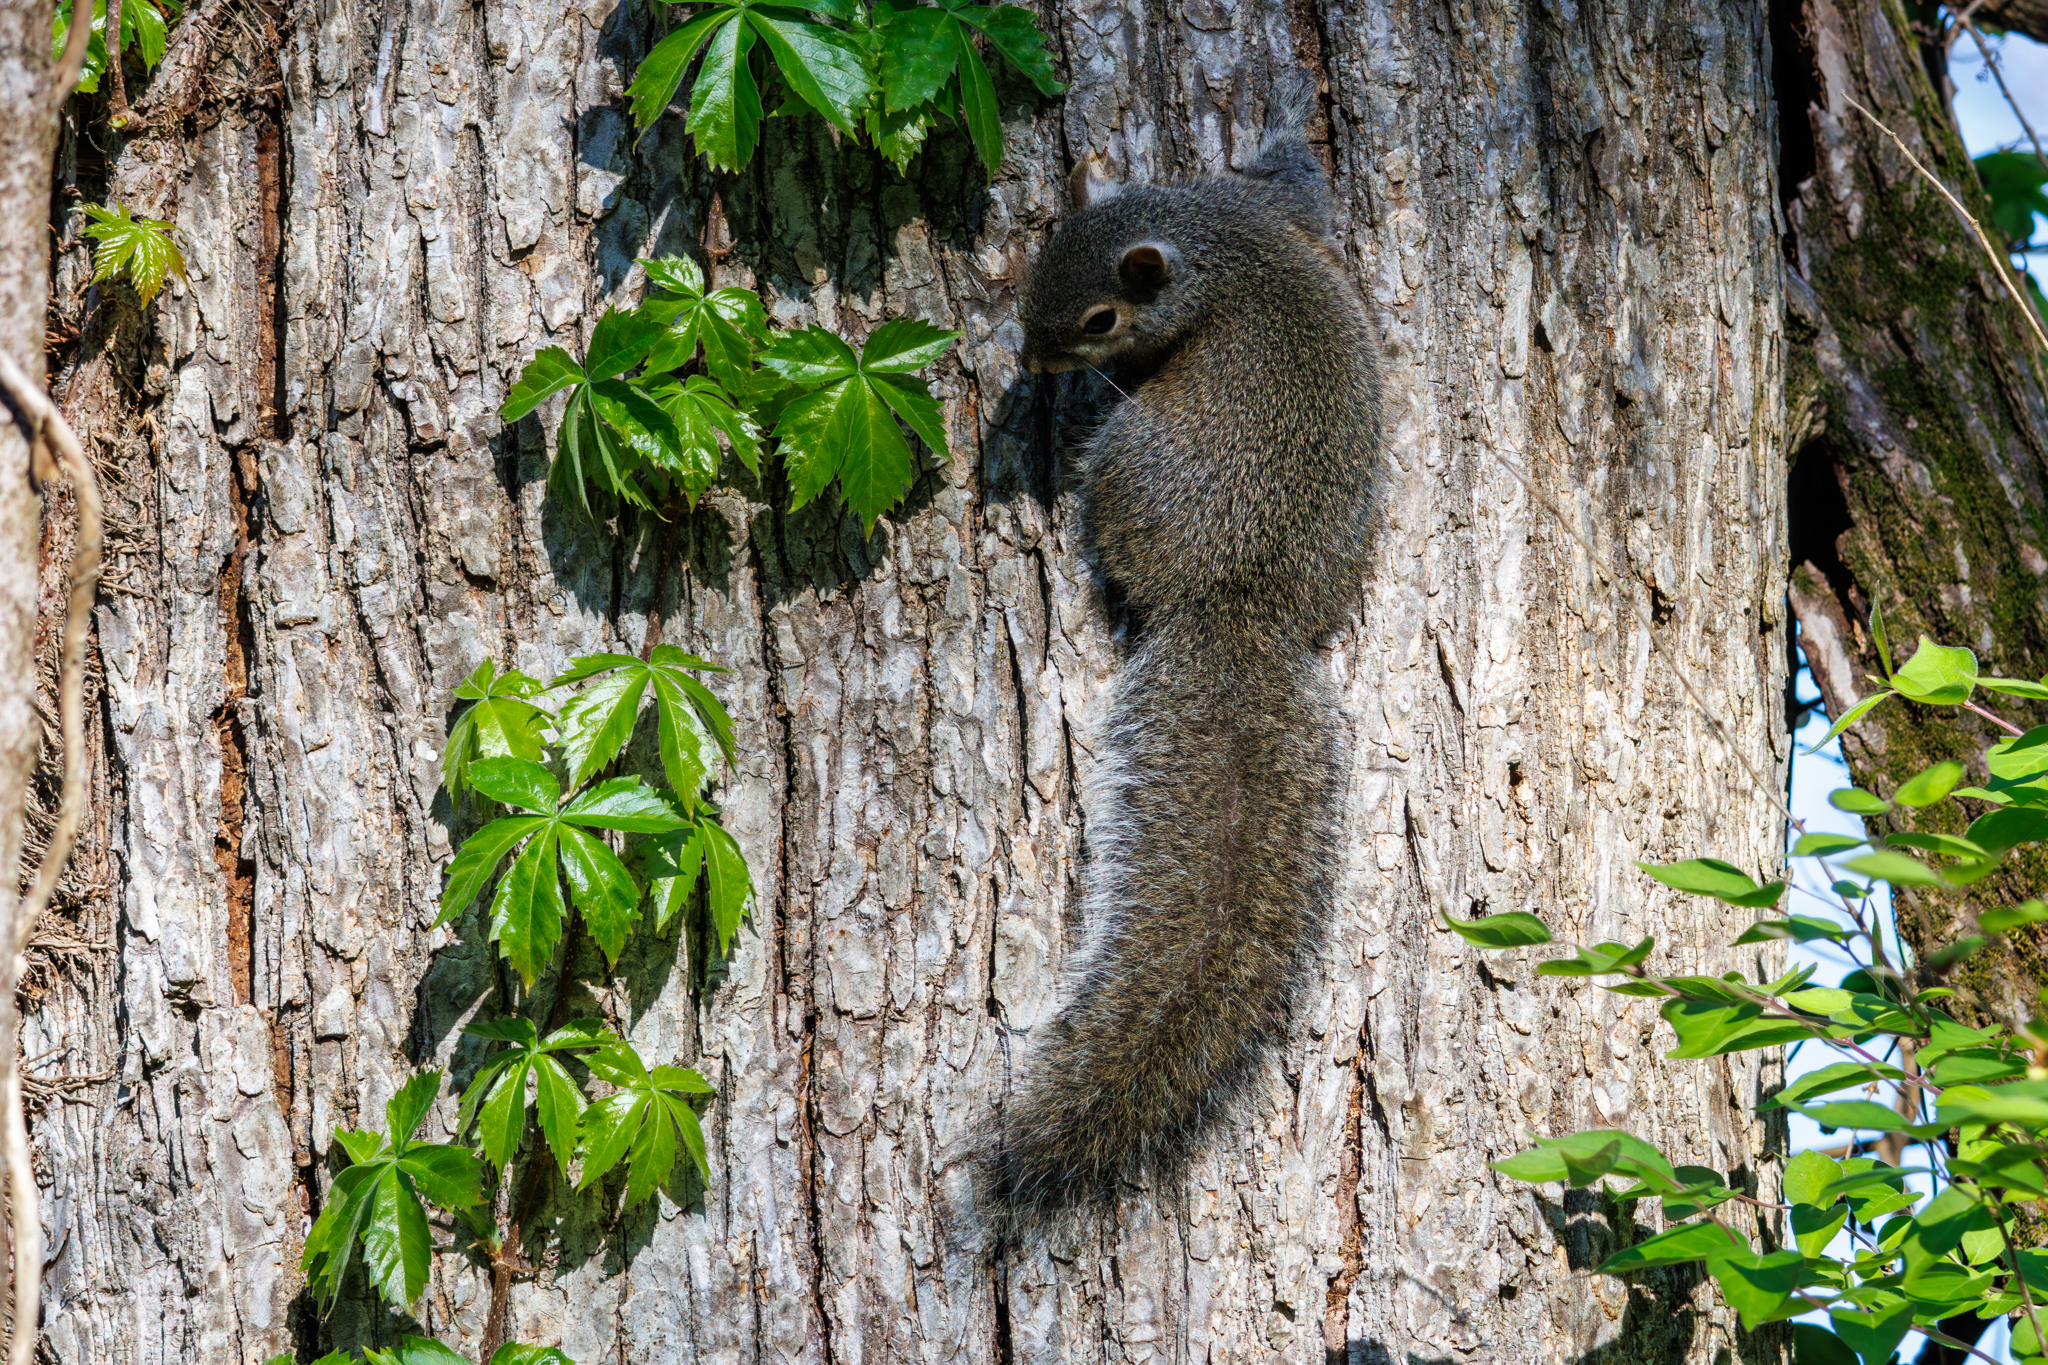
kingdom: Animalia
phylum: Chordata
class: Mammalia
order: Rodentia
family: Sciuridae
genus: Sciurus
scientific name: Sciurus carolinensis
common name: Eastern gray squirrel
